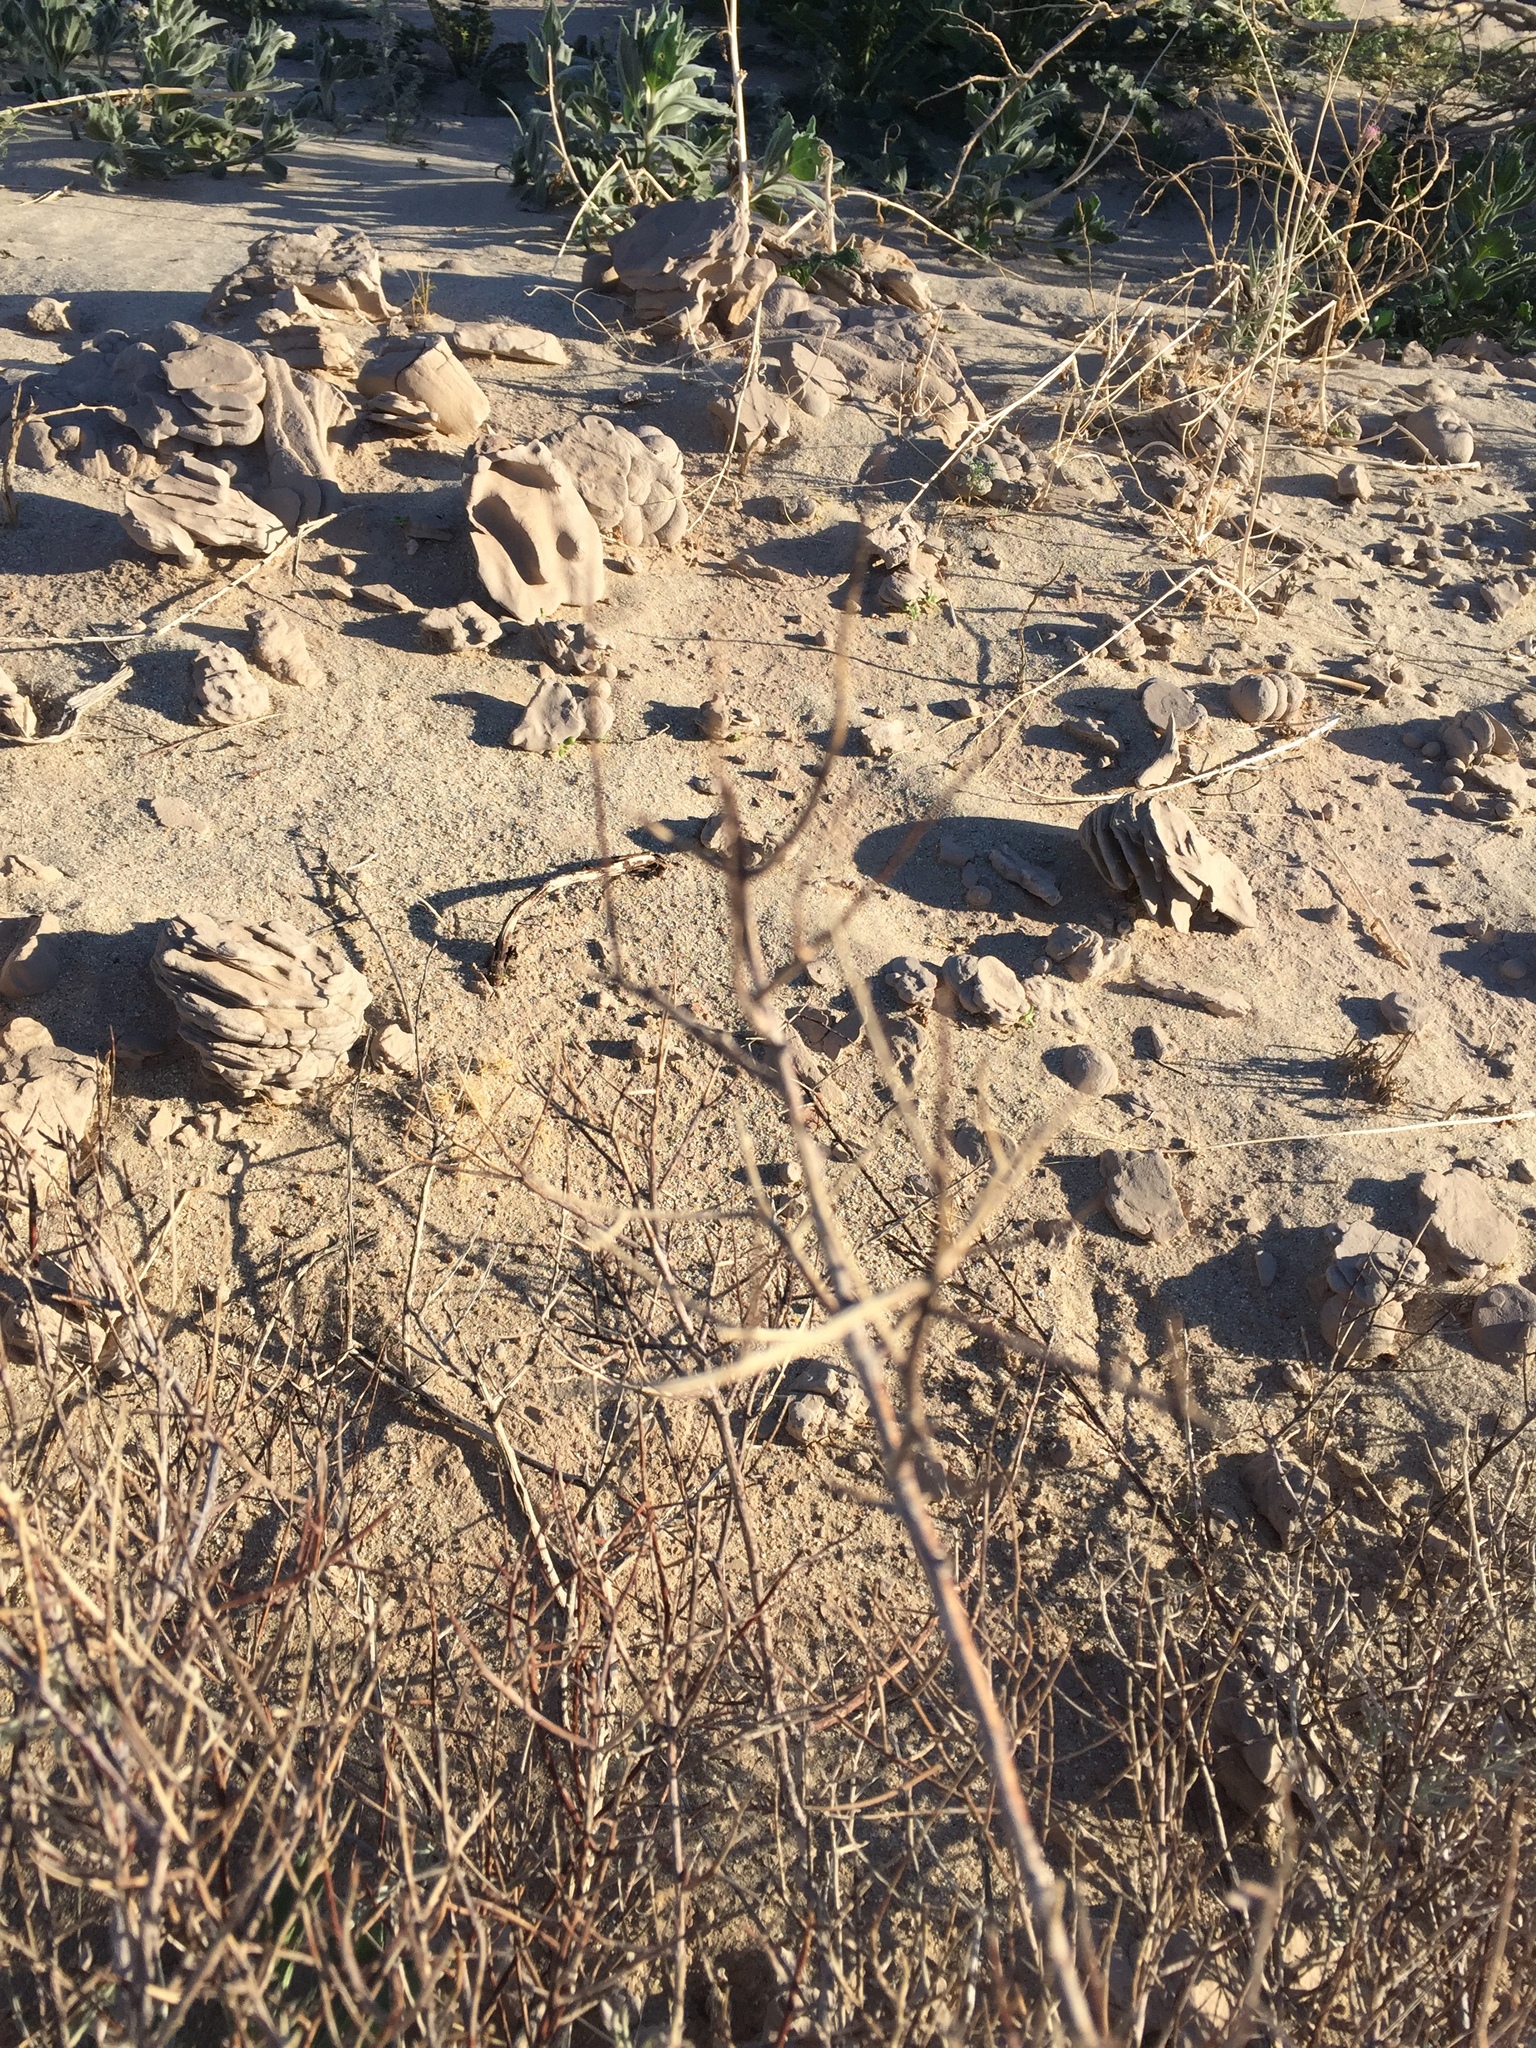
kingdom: Plantae
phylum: Tracheophyta
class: Magnoliopsida
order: Zygophyllales
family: Krameriaceae
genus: Krameria
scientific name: Krameria bicolor
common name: White ratany
